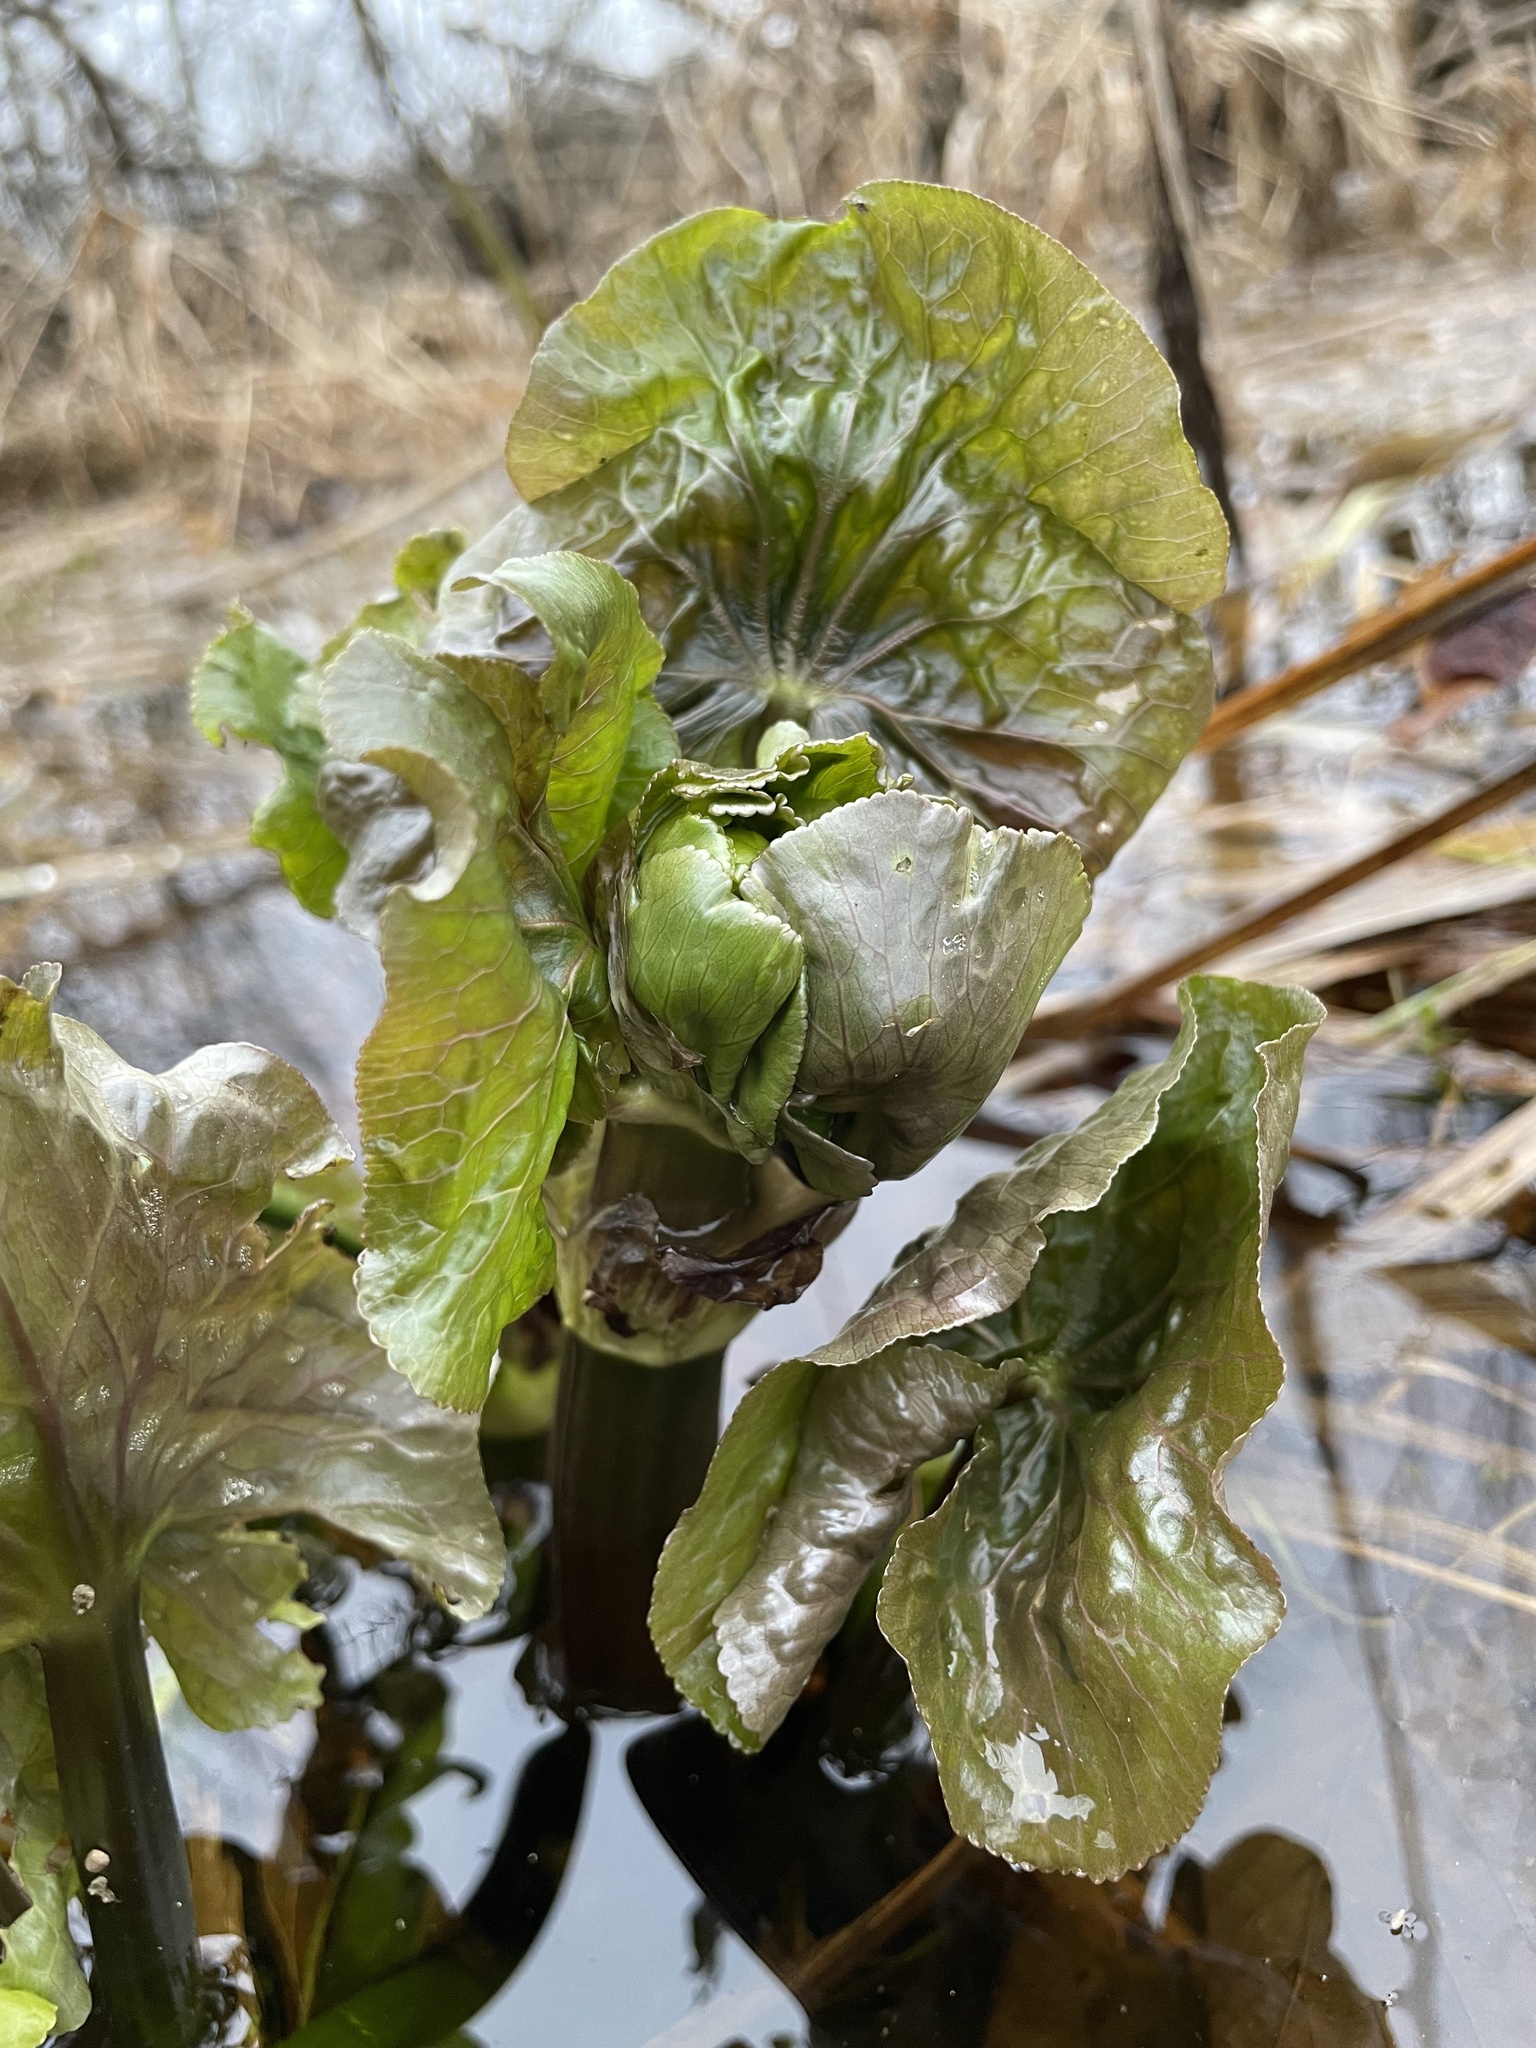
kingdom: Plantae
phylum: Tracheophyta
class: Magnoliopsida
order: Ranunculales
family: Ranunculaceae
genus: Caltha
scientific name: Caltha palustris
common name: Marsh marigold
